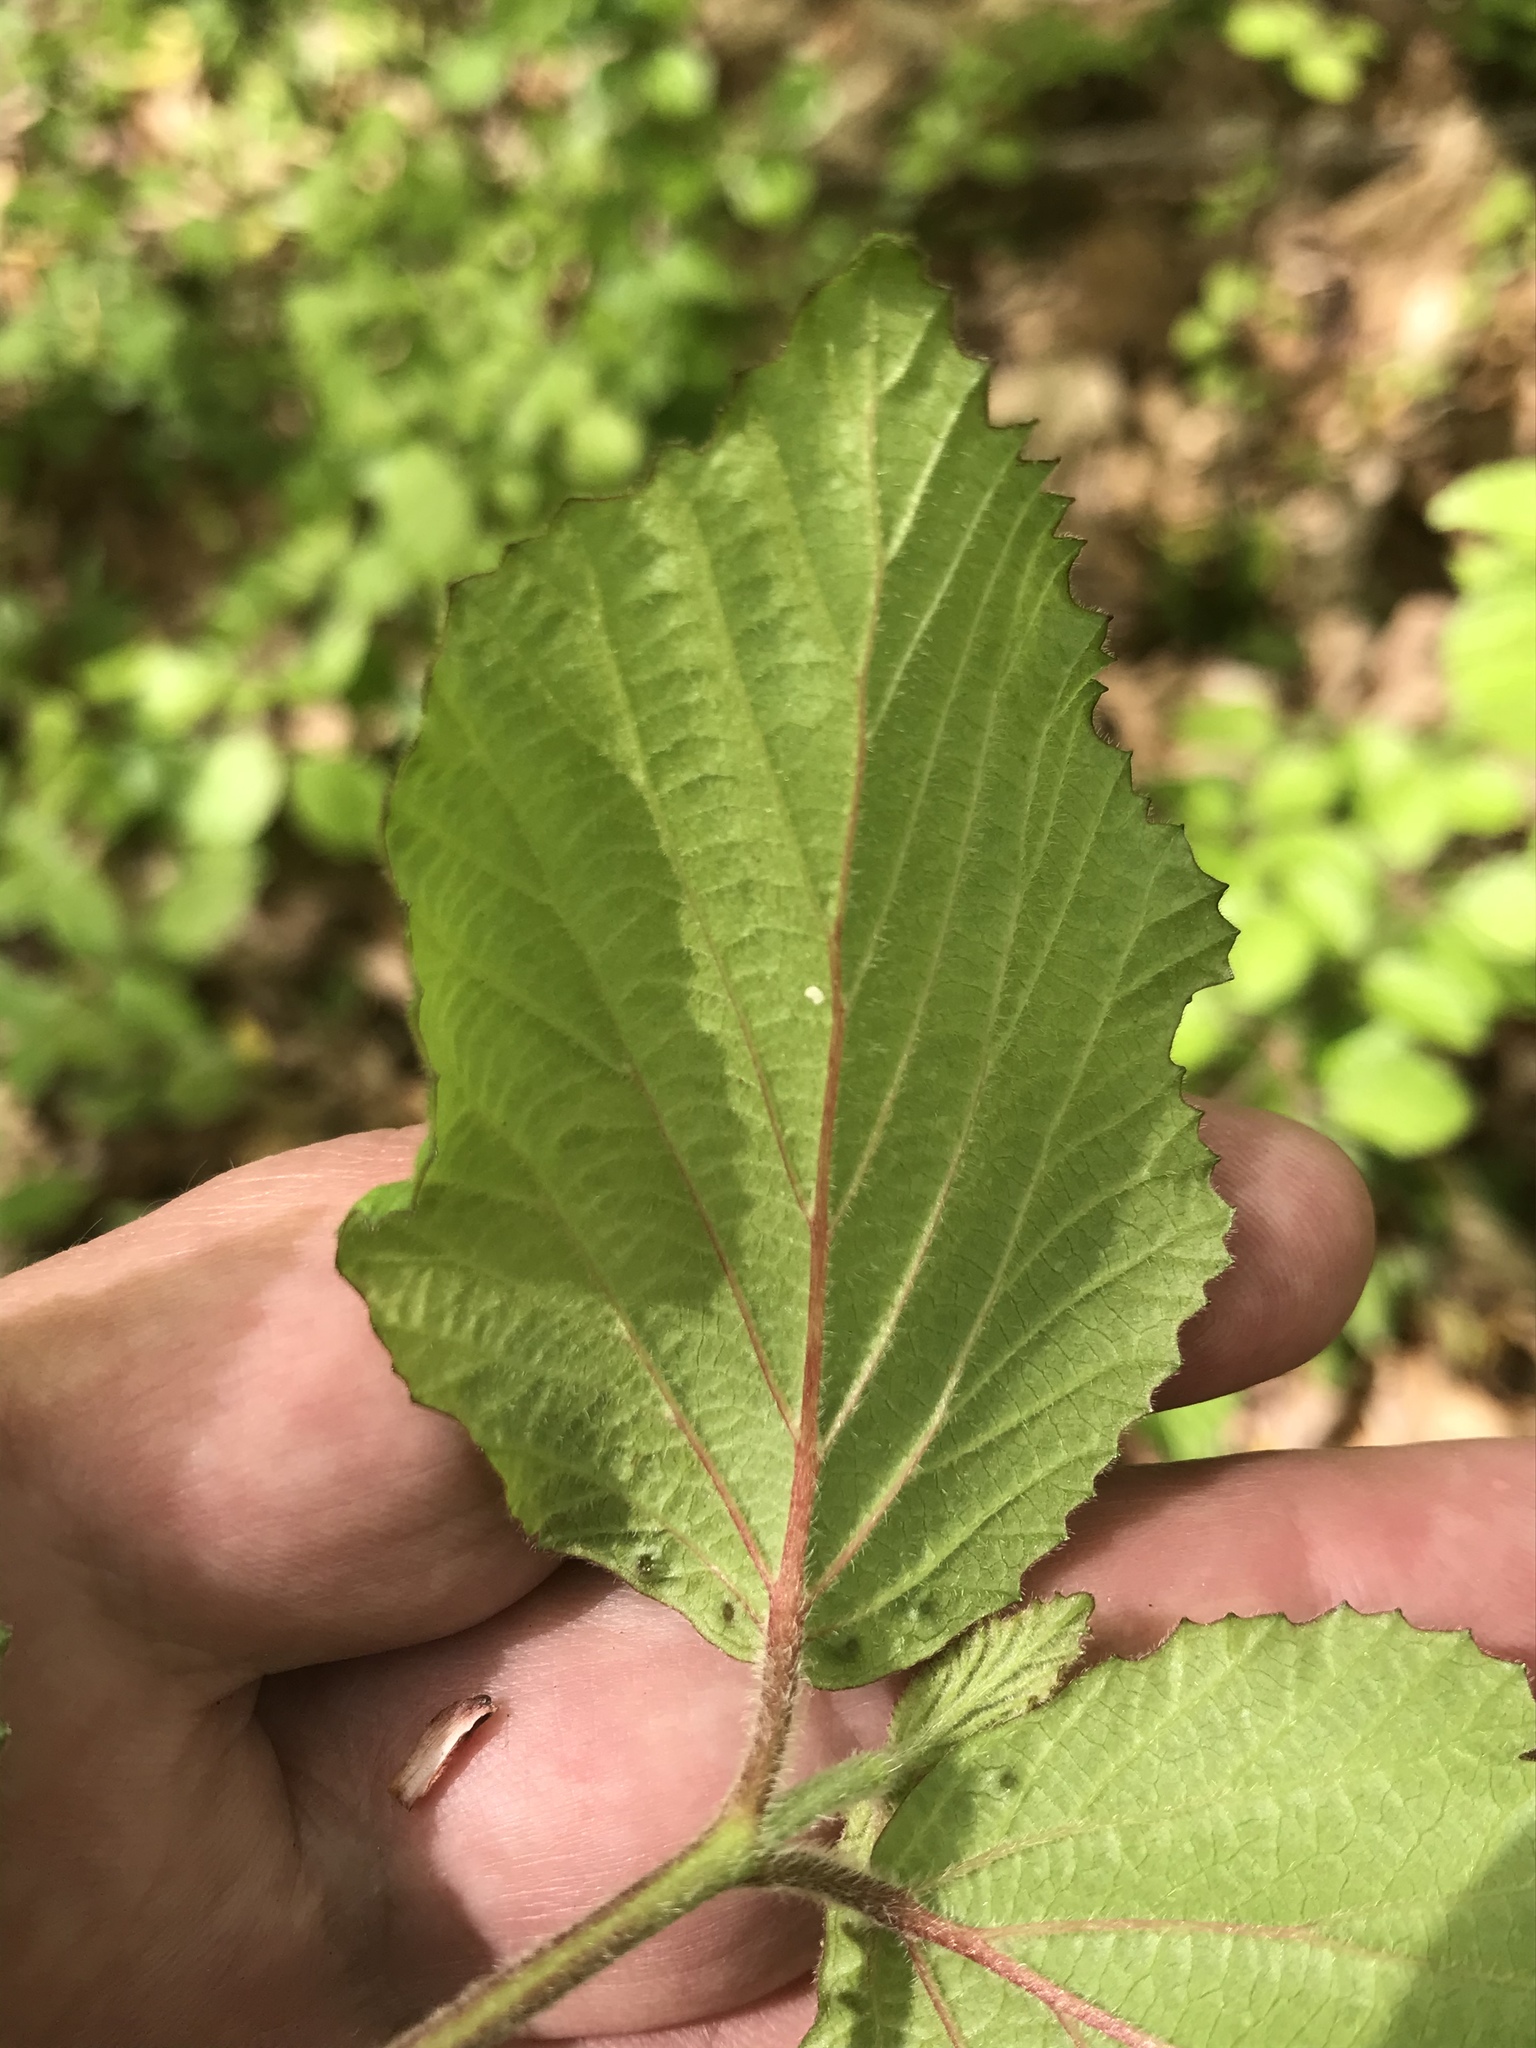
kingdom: Plantae
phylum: Tracheophyta
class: Magnoliopsida
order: Dipsacales
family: Viburnaceae
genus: Viburnum
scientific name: Viburnum dilatatum
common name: Linden arrowwood
